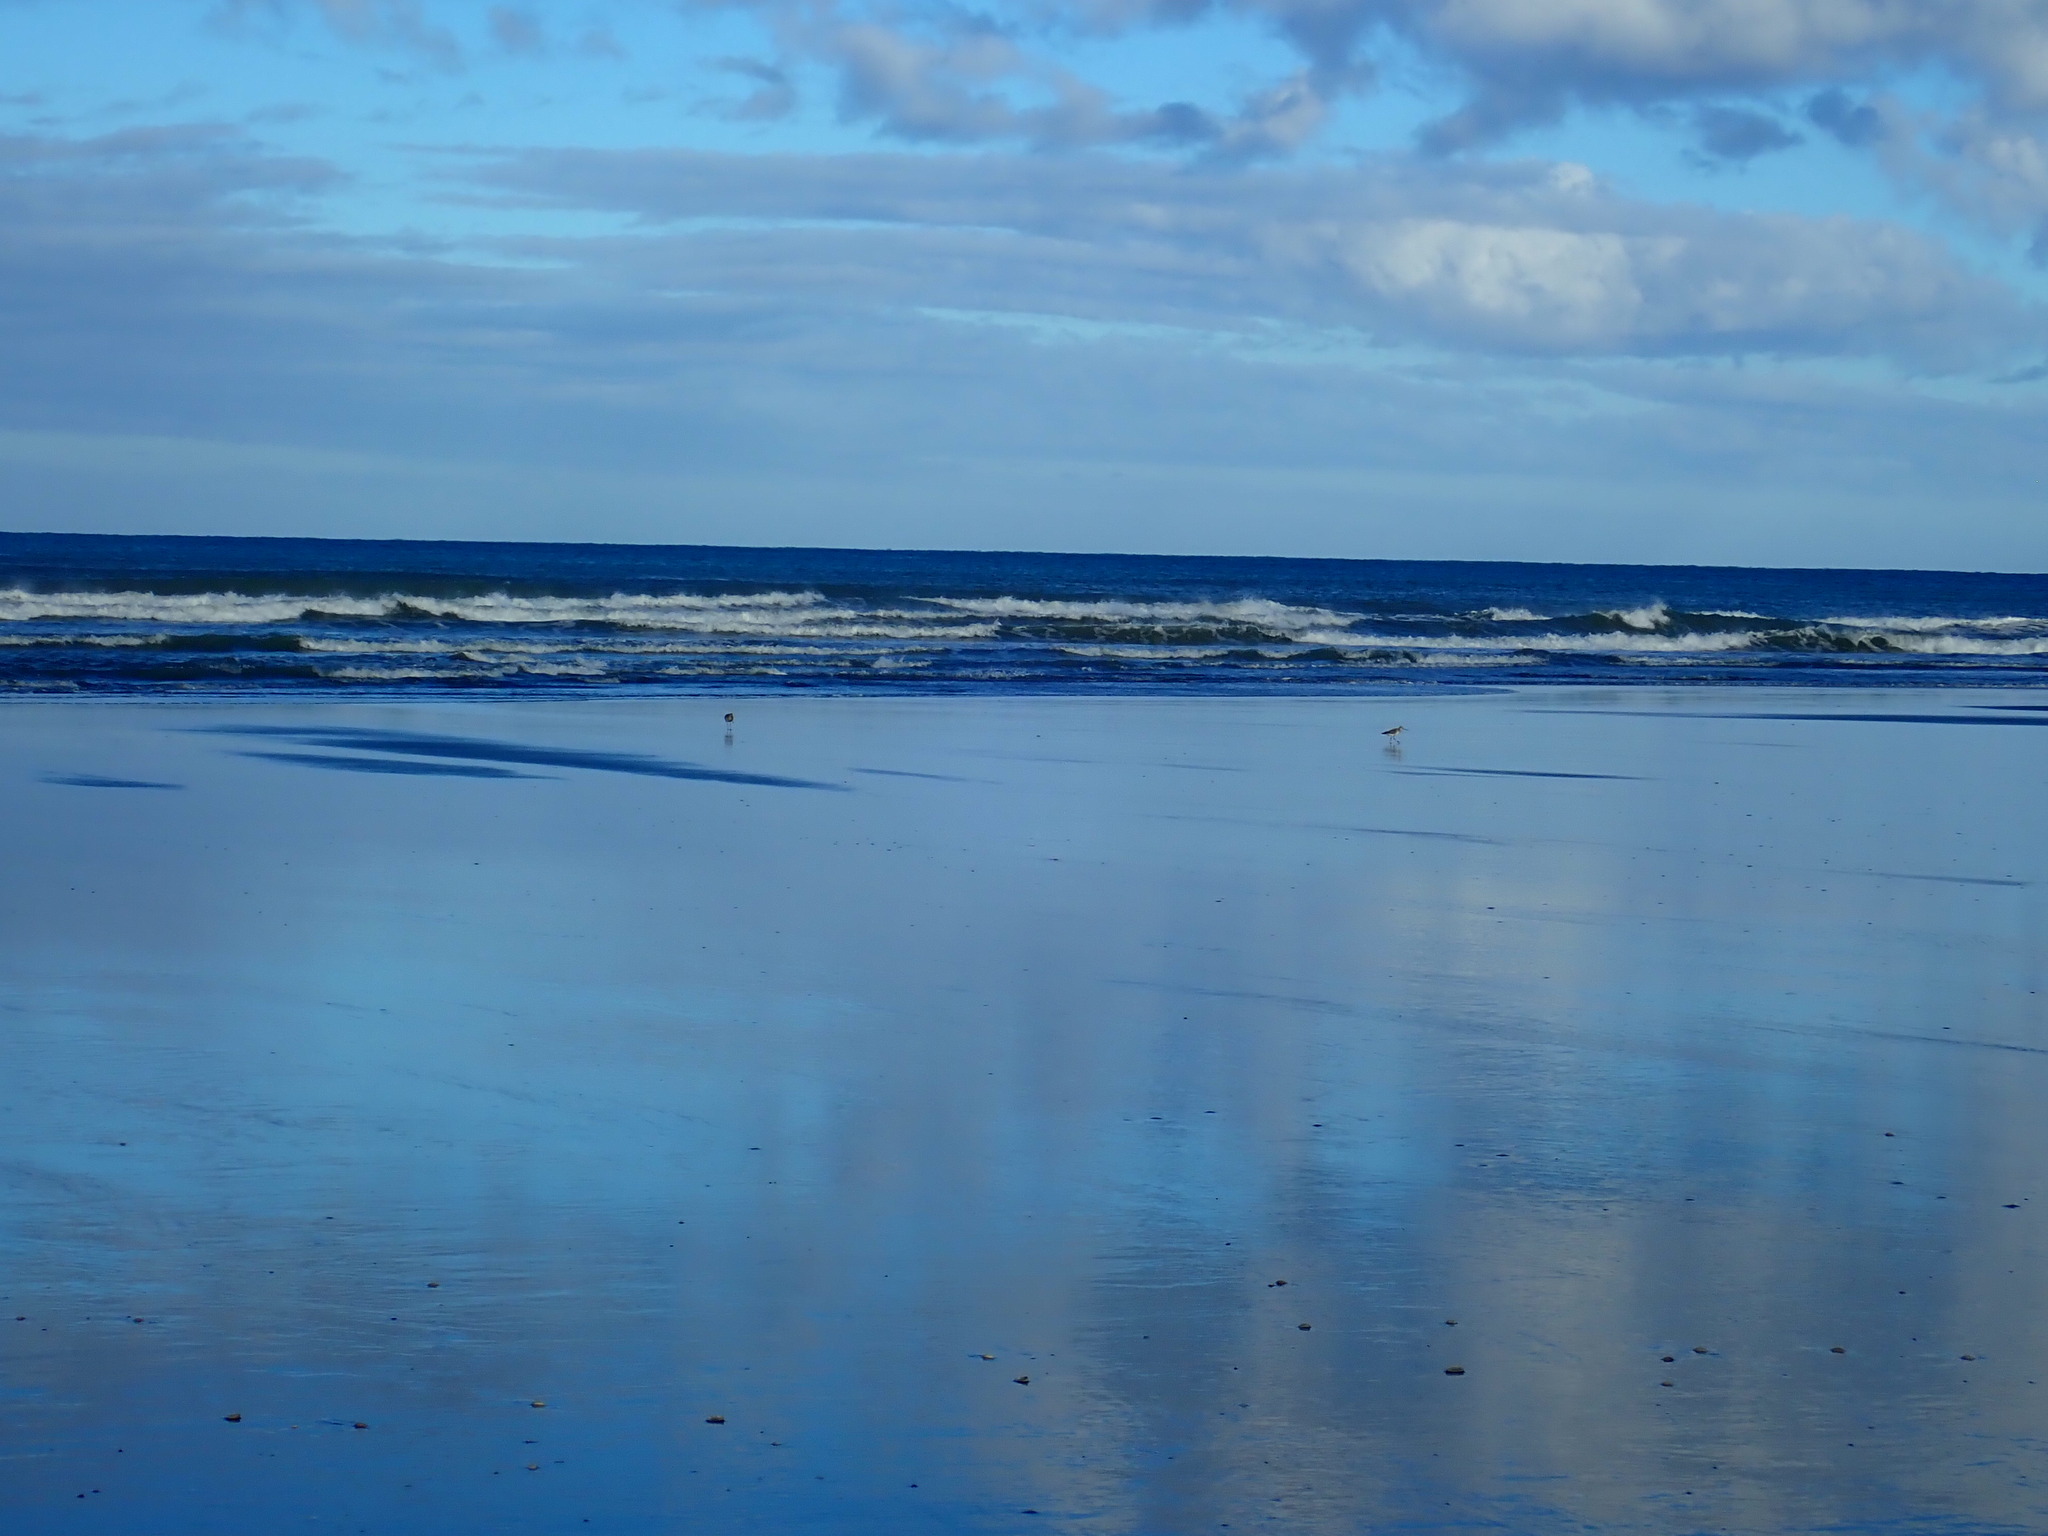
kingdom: Animalia
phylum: Chordata
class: Aves
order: Charadriiformes
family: Scolopacidae
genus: Limosa
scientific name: Limosa lapponica
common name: Bar-tailed godwit
